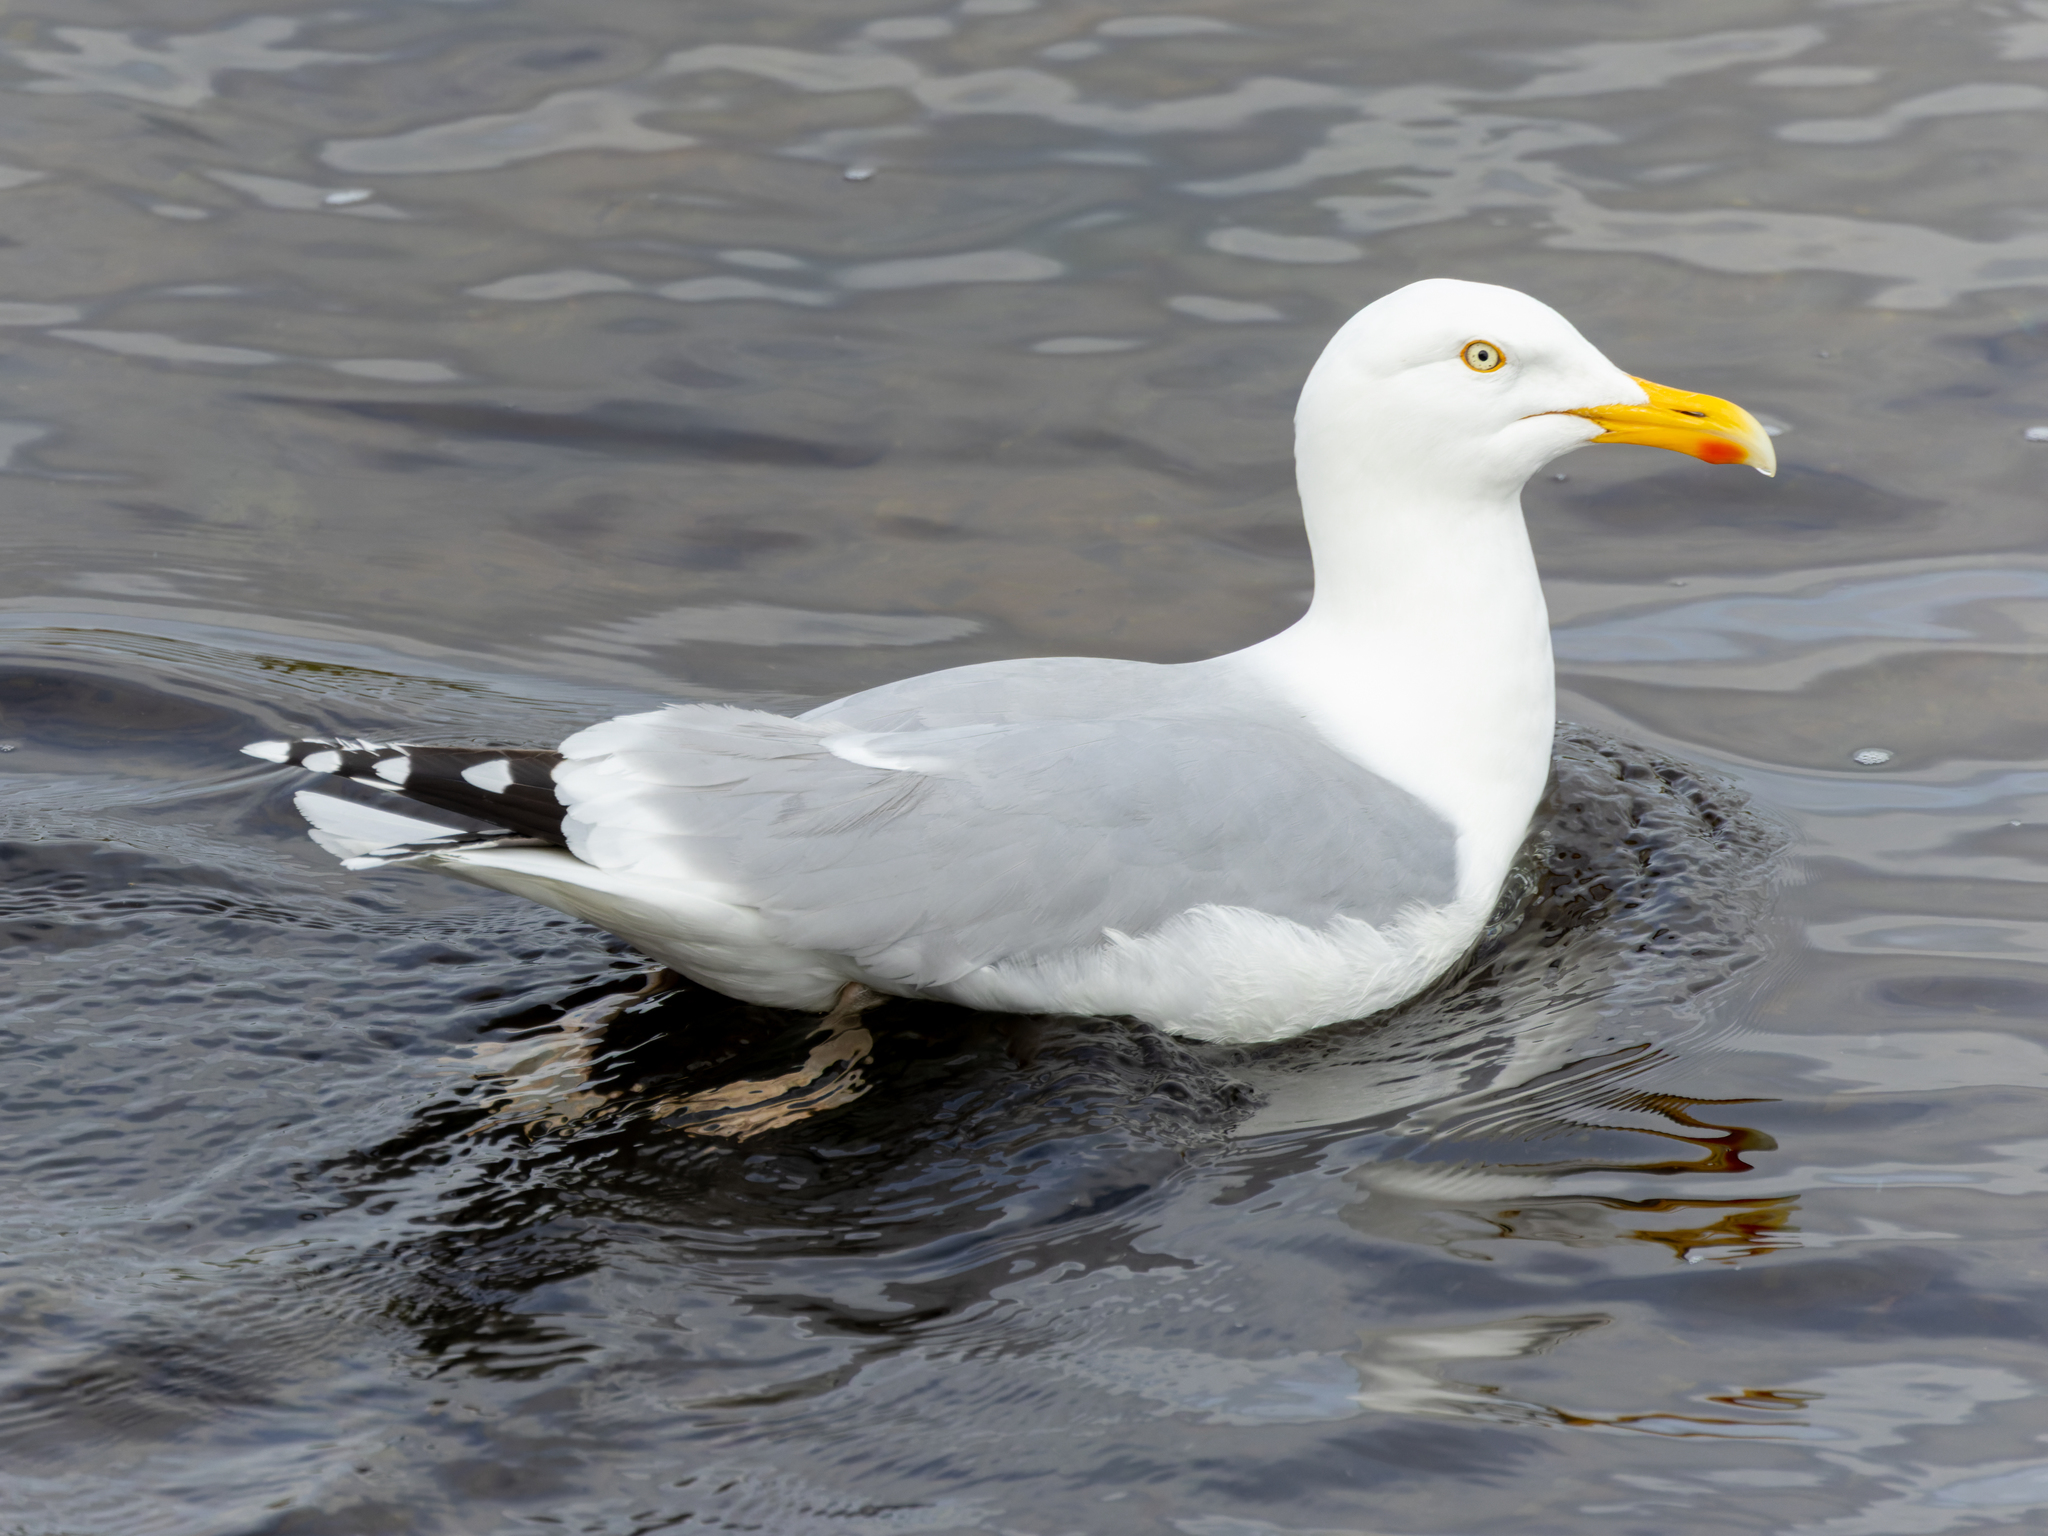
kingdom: Animalia
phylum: Chordata
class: Aves
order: Charadriiformes
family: Laridae
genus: Larus
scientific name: Larus argentatus
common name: Herring gull
